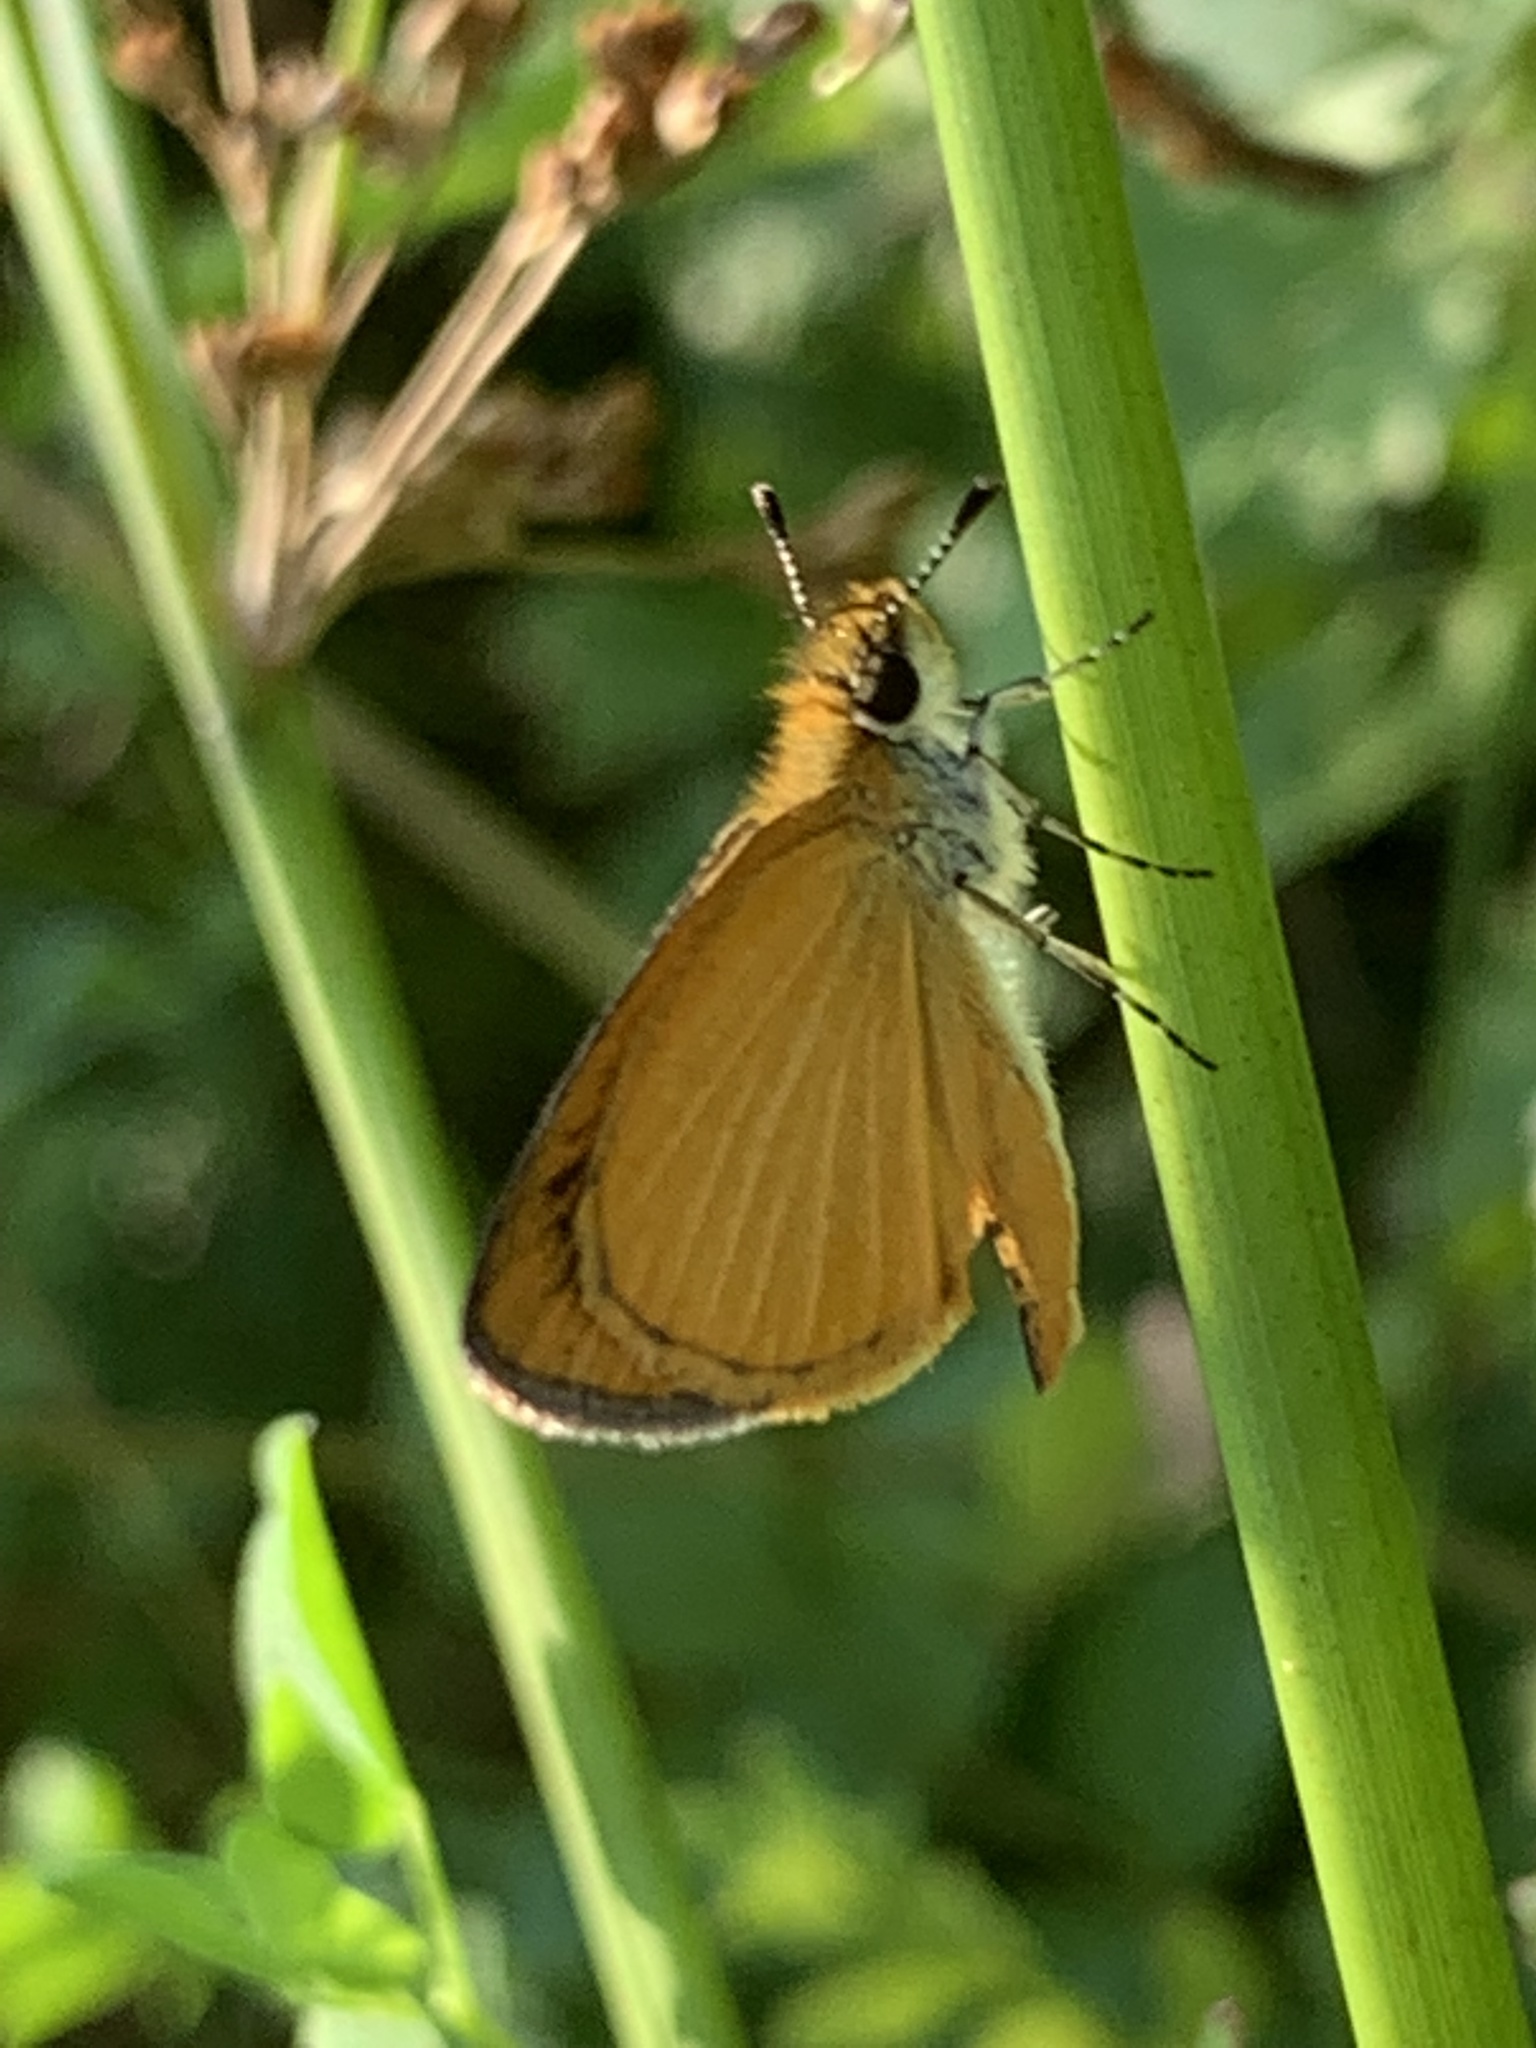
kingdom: Animalia
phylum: Arthropoda
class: Insecta
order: Lepidoptera
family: Hesperiidae
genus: Ancyloxypha
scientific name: Ancyloxypha numitor
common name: Least skipper
